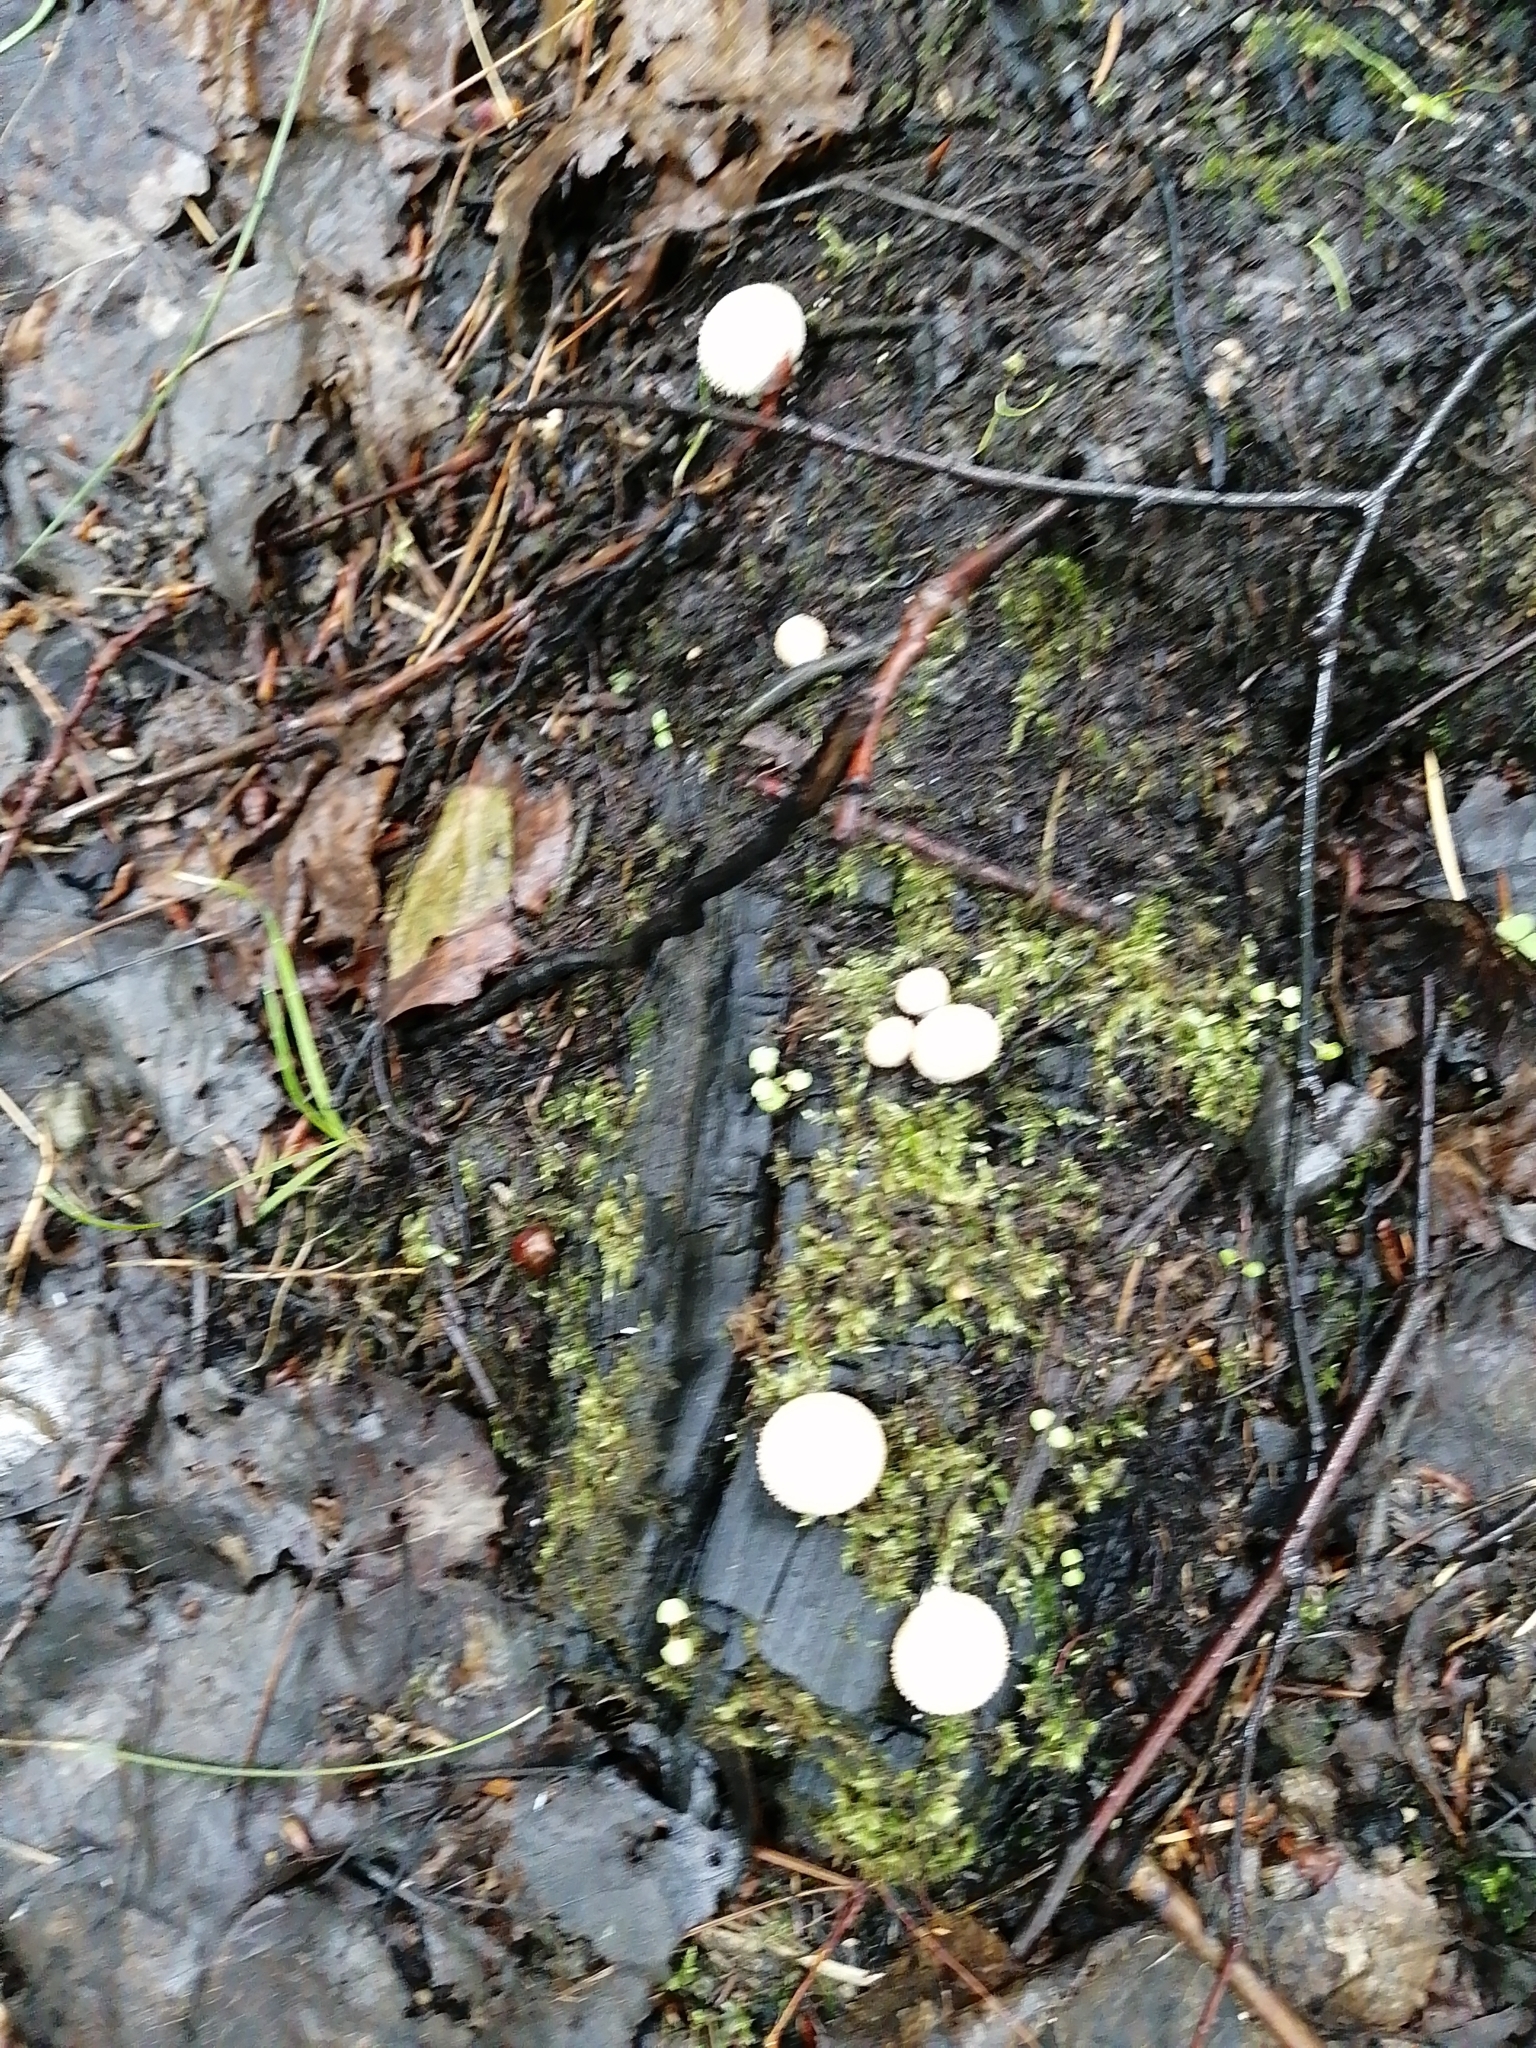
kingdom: Fungi
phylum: Basidiomycota
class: Agaricomycetes
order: Agaricales
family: Lycoperdaceae
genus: Lycoperdon
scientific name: Lycoperdon perlatum
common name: Common puffball
